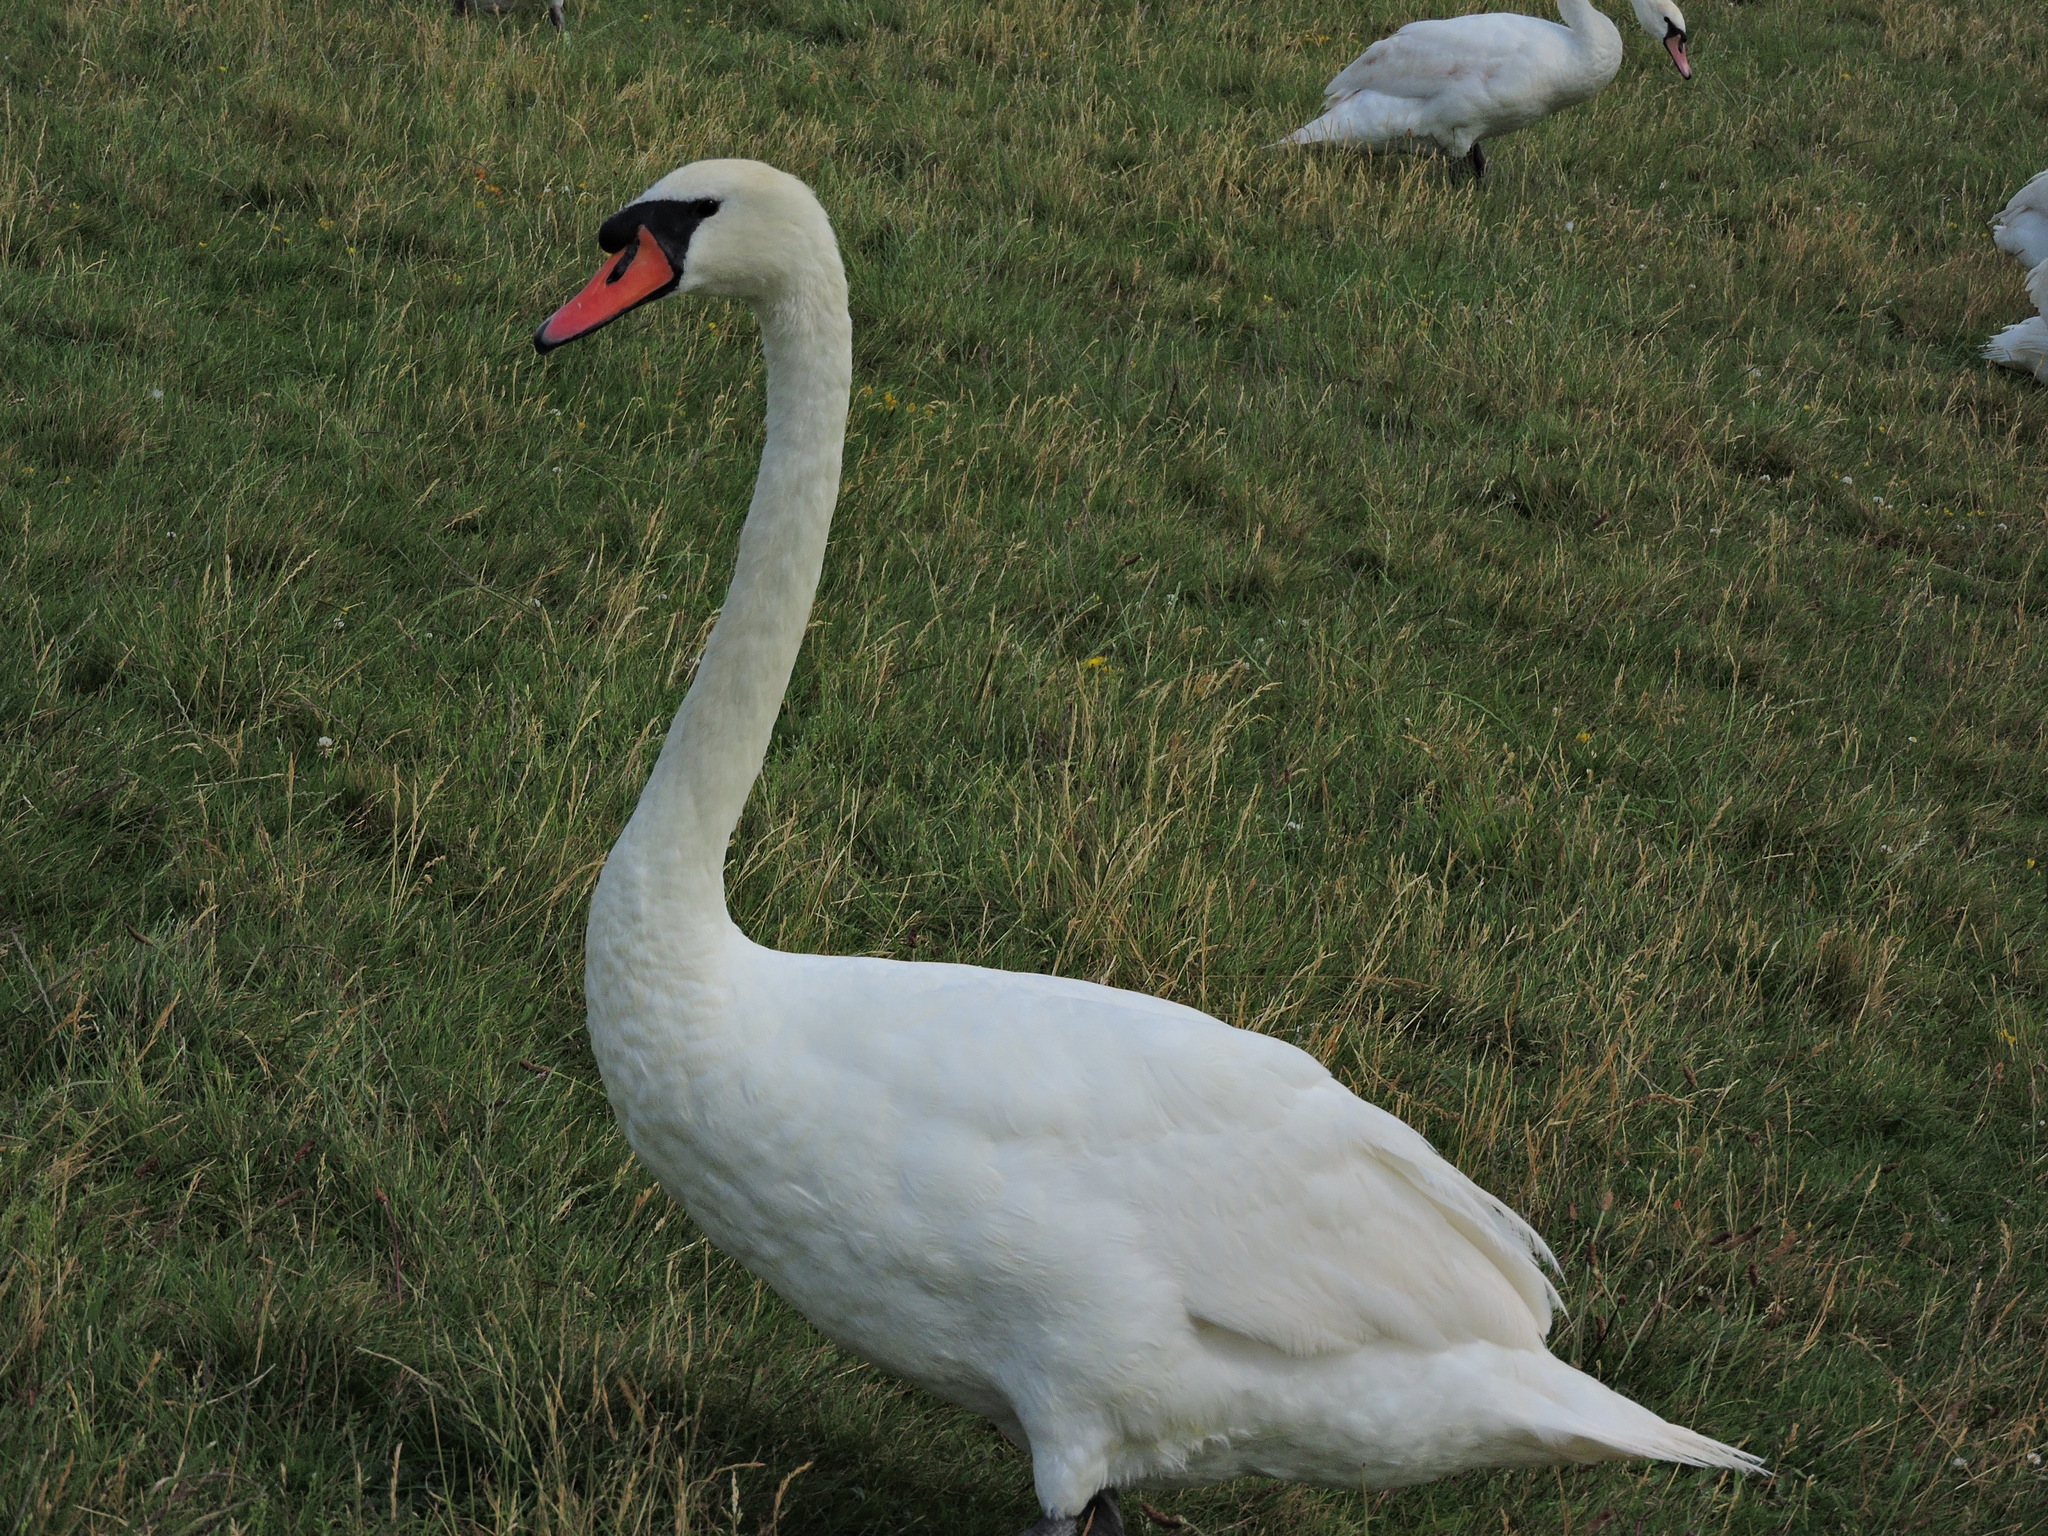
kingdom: Animalia
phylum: Chordata
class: Aves
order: Anseriformes
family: Anatidae
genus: Cygnus
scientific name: Cygnus olor
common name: Mute swan
